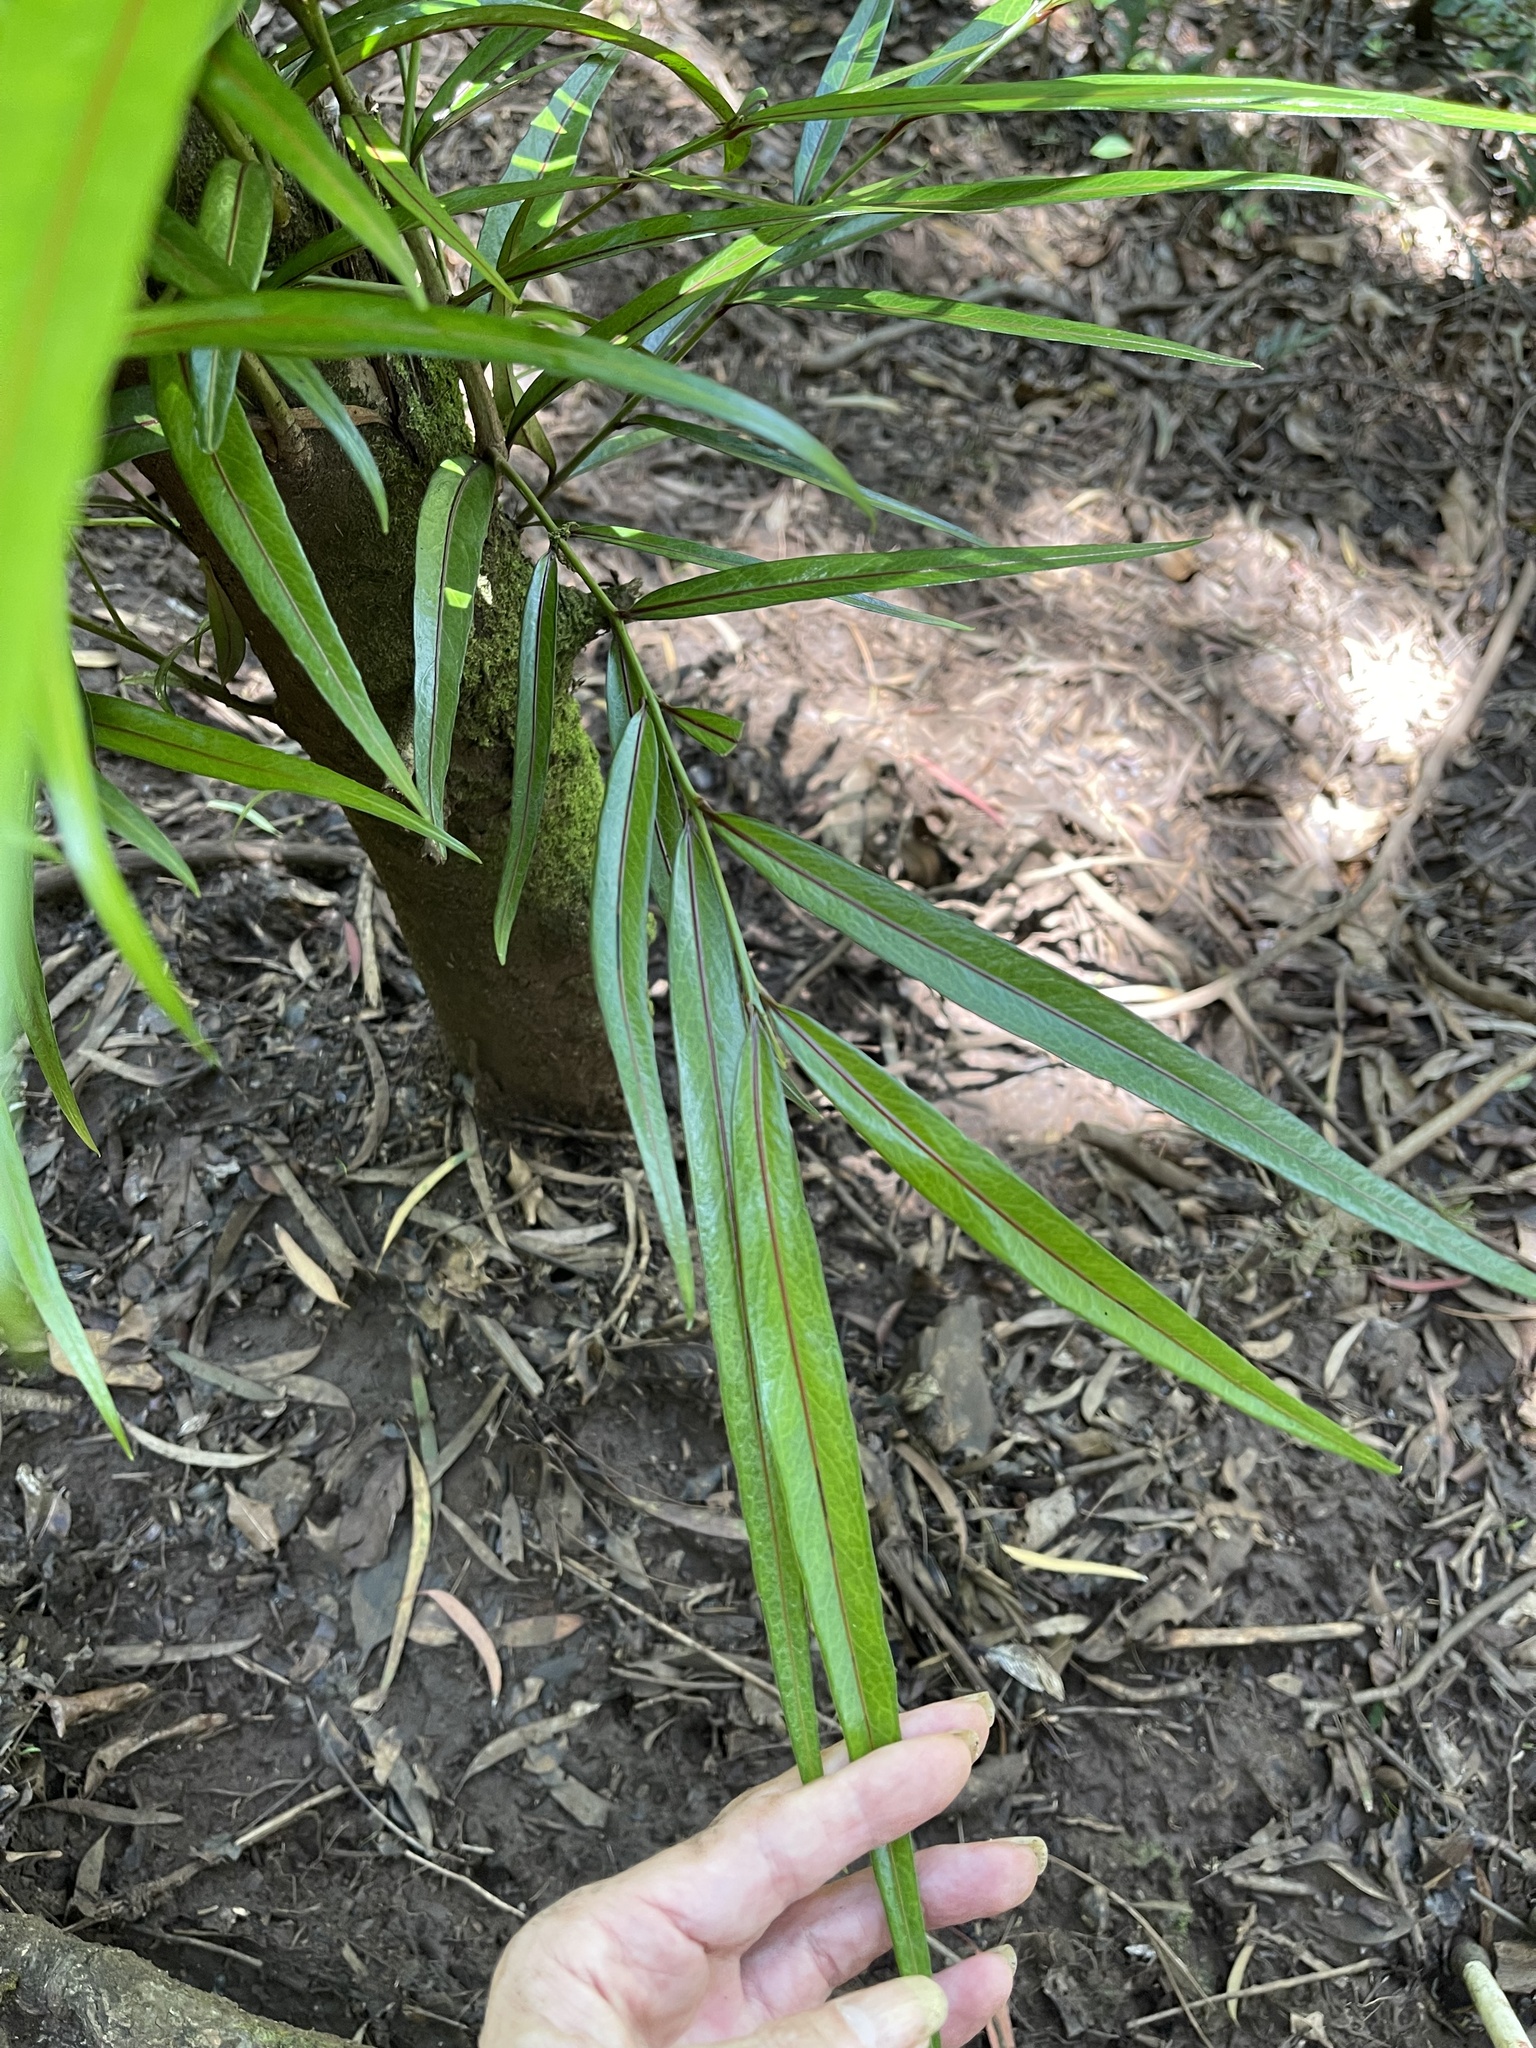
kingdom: Plantae
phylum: Tracheophyta
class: Magnoliopsida
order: Celastrales
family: Celastraceae
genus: Elaeodendron
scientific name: Elaeodendron orientale
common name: False olive
